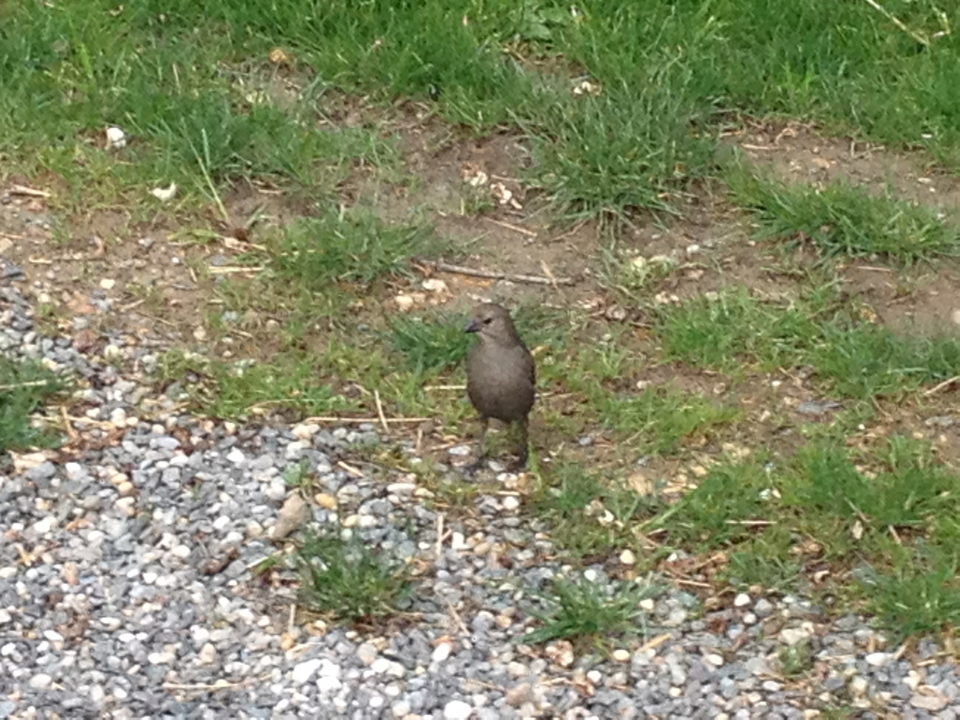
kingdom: Animalia
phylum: Chordata
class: Aves
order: Passeriformes
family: Icteridae
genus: Molothrus
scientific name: Molothrus ater
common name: Brown-headed cowbird
